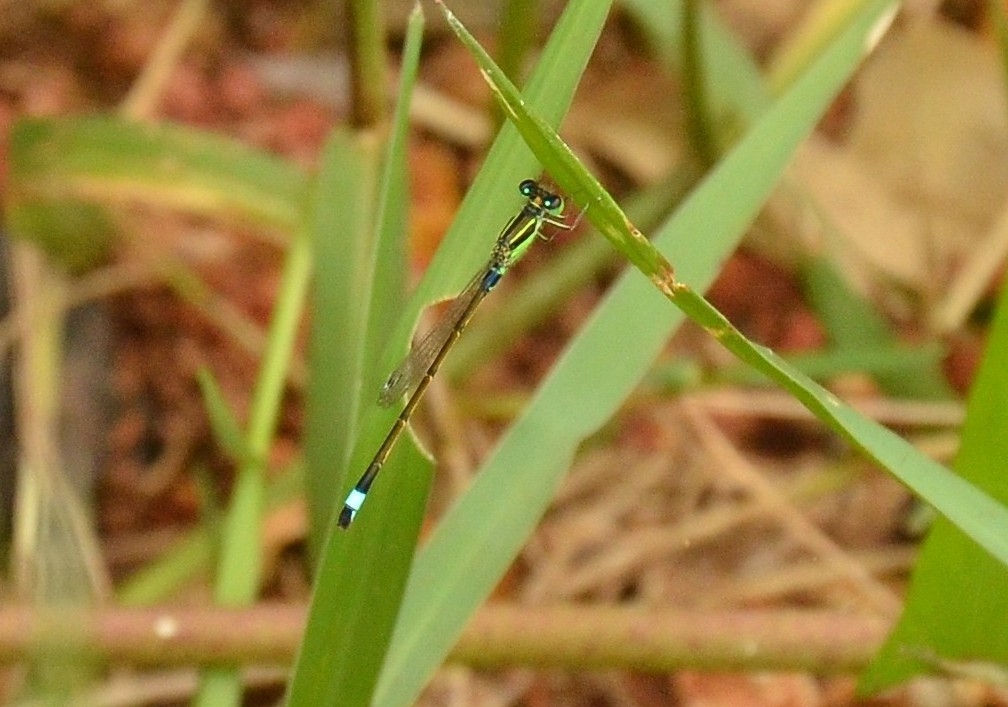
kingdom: Animalia
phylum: Arthropoda
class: Insecta
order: Odonata
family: Coenagrionidae
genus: Ischnura
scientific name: Ischnura senegalensis
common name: Tropical bluetail
